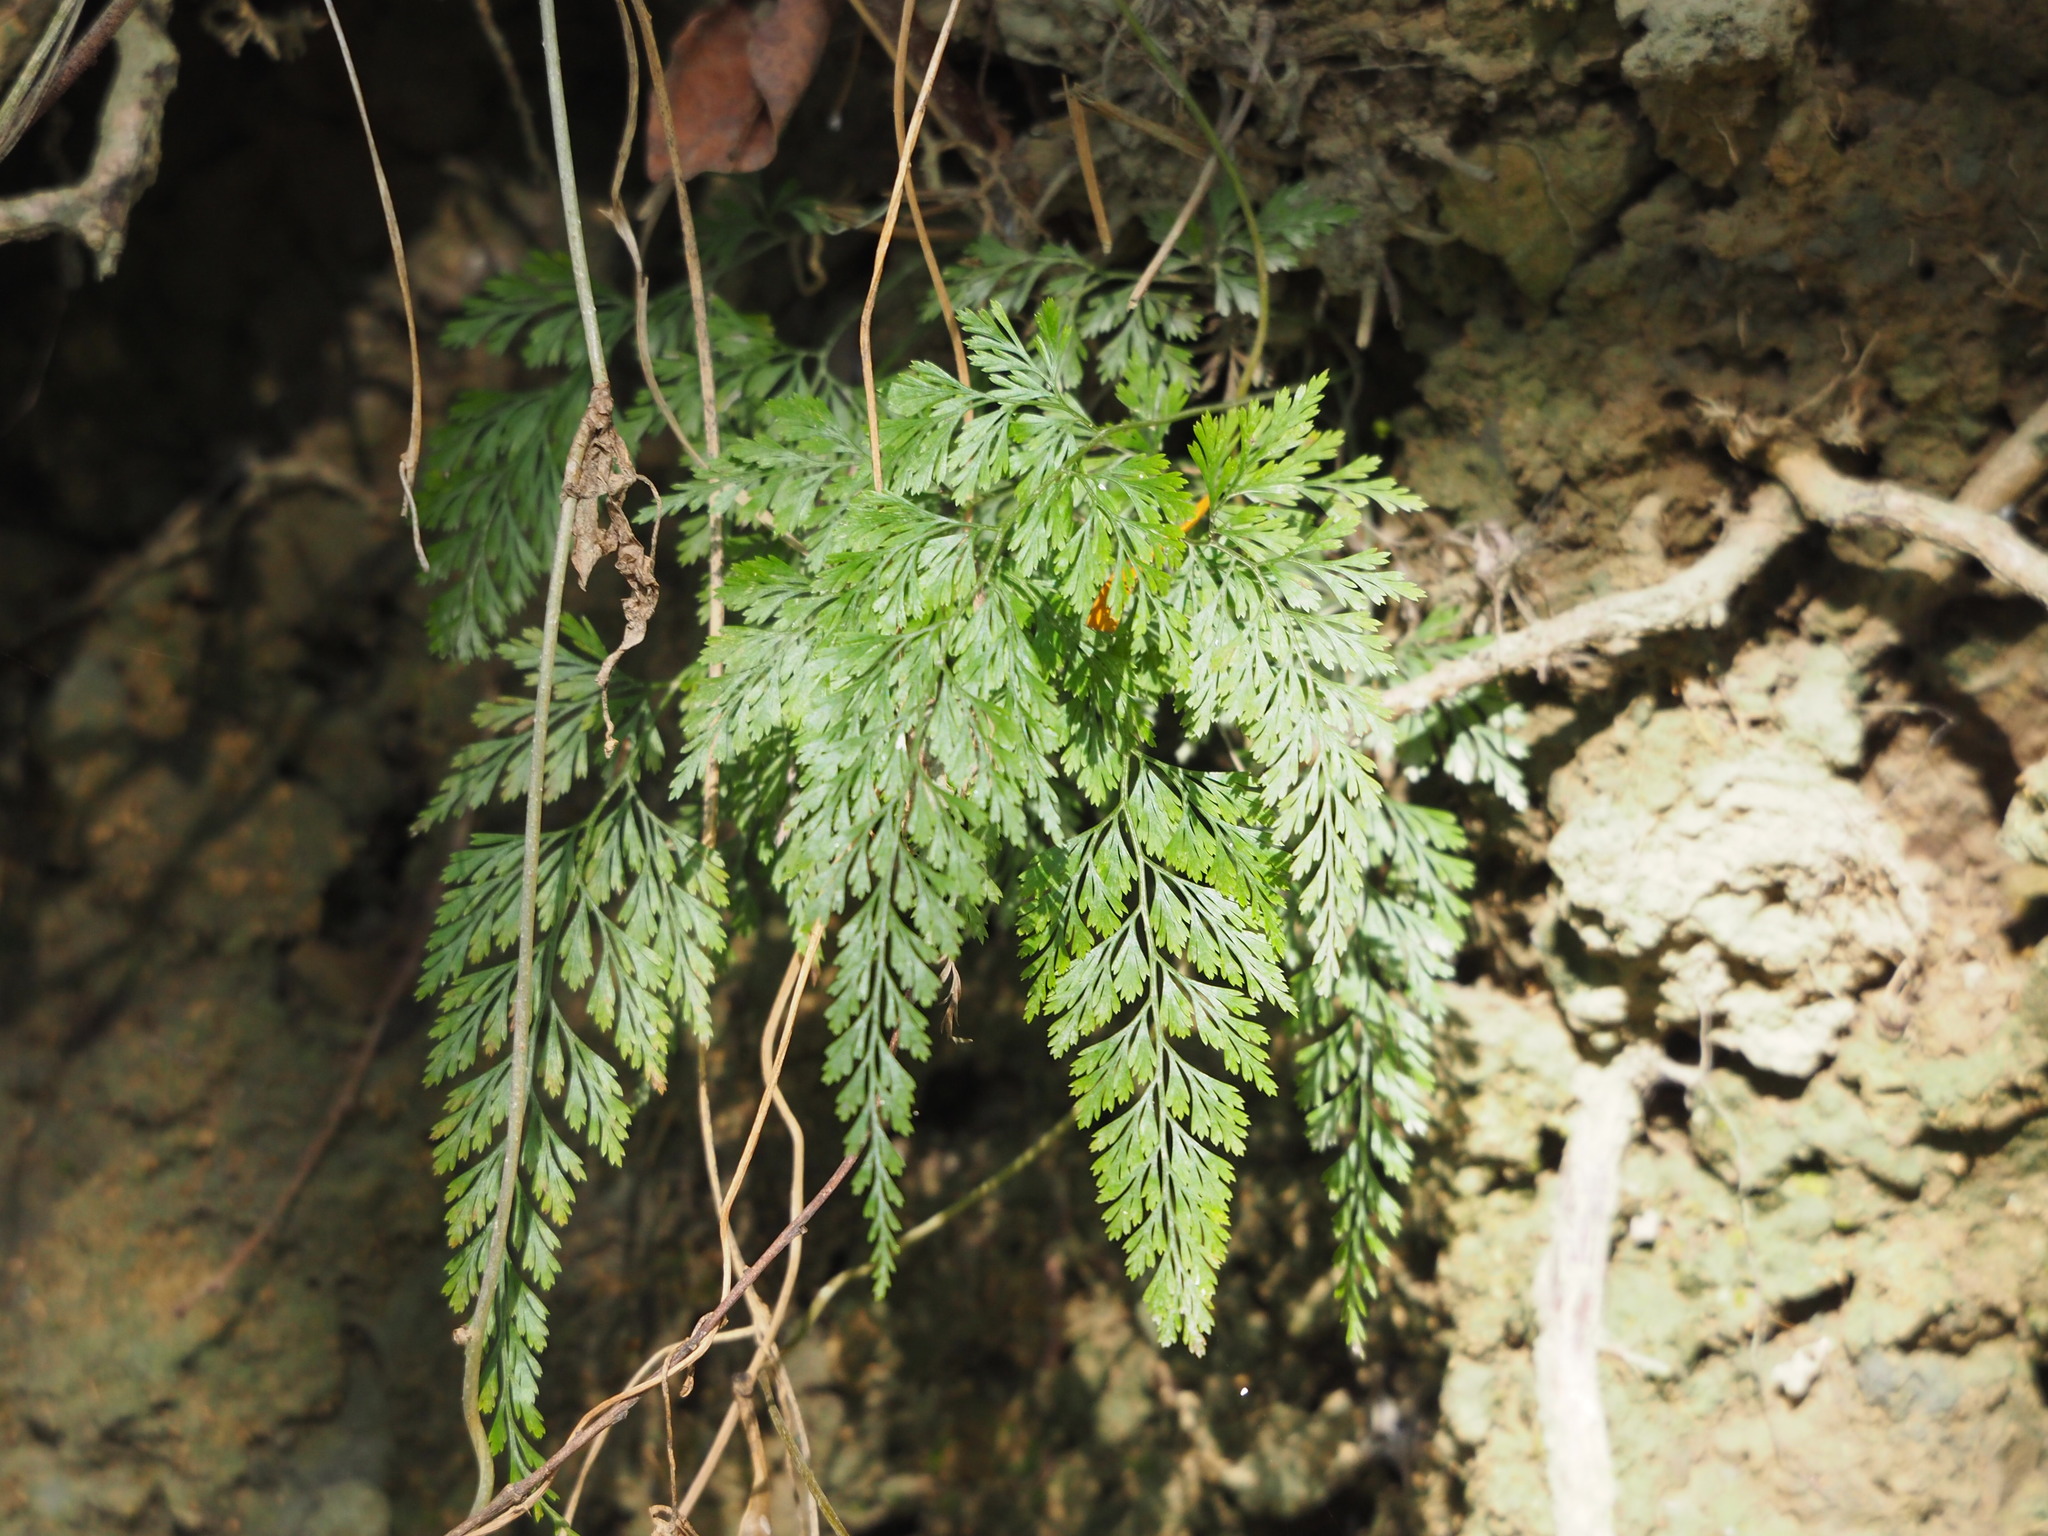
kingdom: Plantae
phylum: Tracheophyta
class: Polypodiopsida
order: Polypodiales
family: Pteridaceae
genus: Onychium
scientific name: Onychium japonicum
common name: Carrot fern
